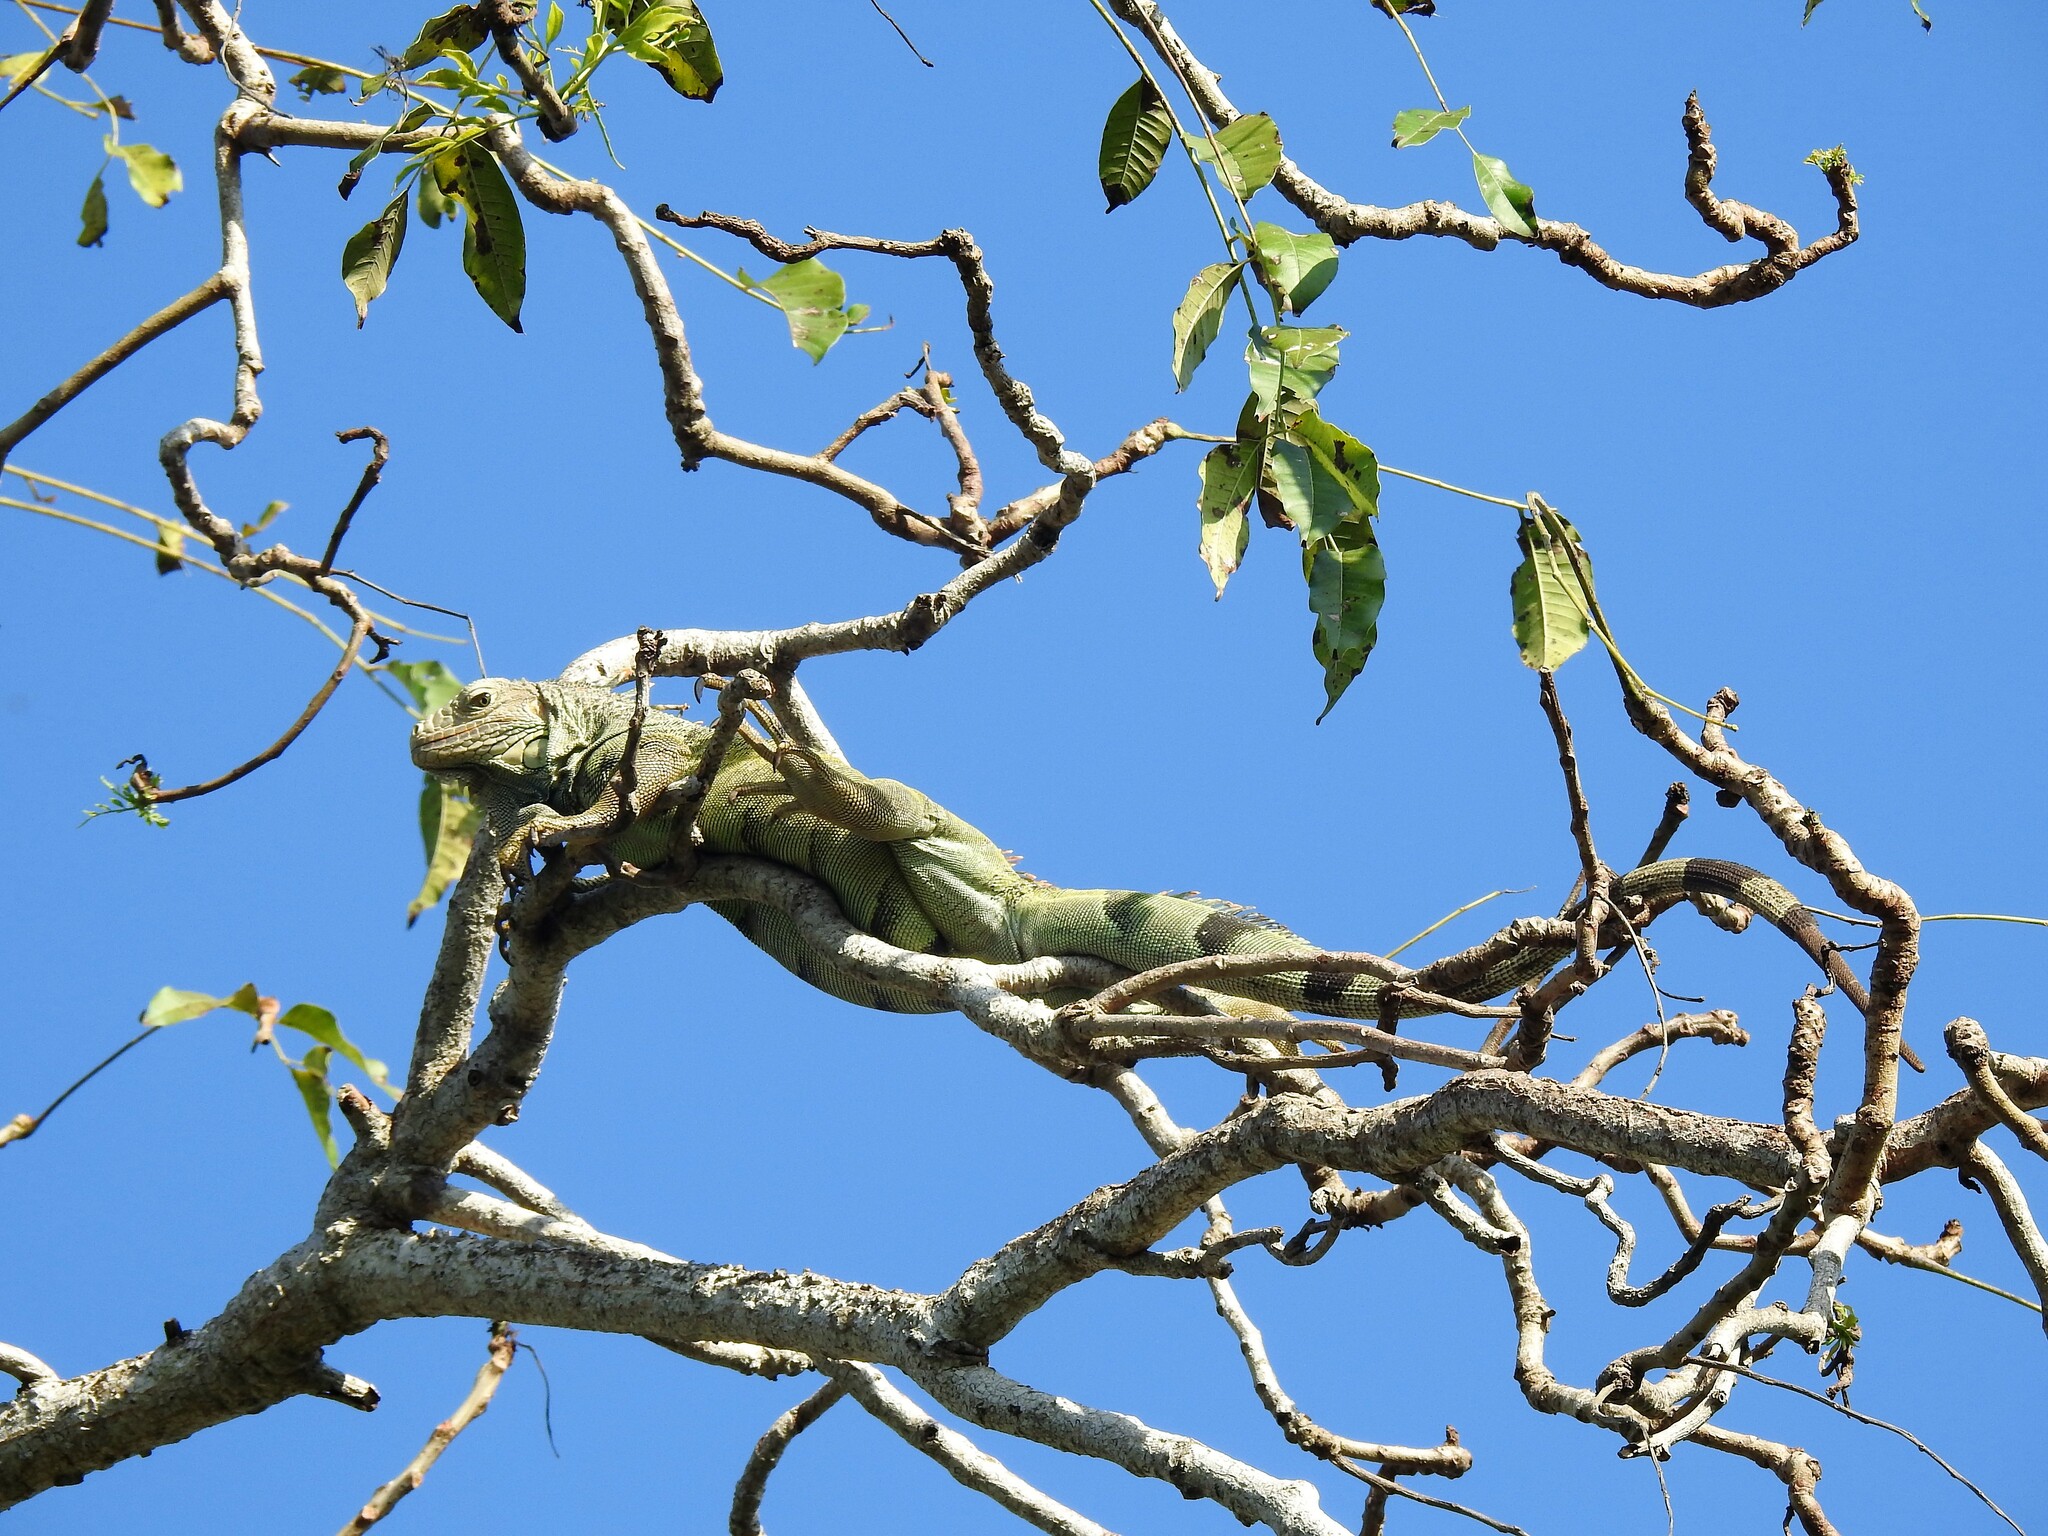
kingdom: Animalia
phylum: Chordata
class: Squamata
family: Iguanidae
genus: Iguana
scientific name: Iguana iguana
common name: Green iguana
